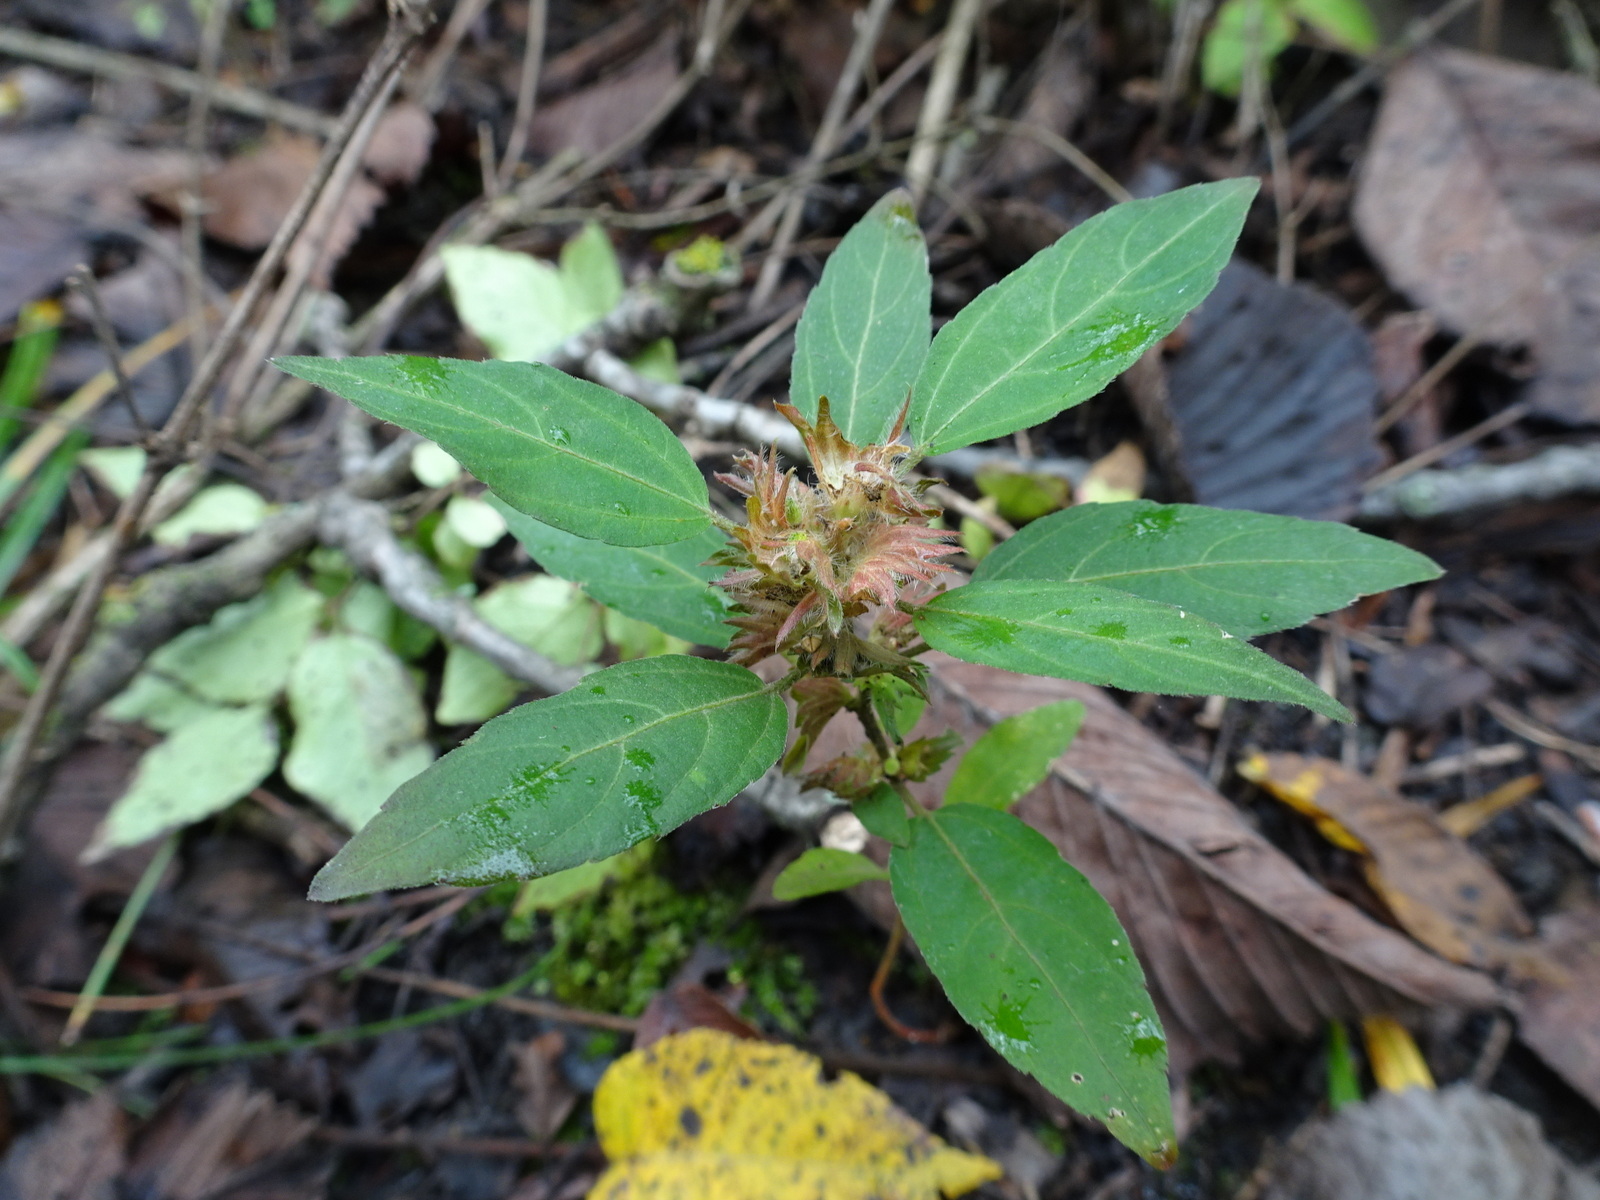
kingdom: Plantae
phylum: Tracheophyta
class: Magnoliopsida
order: Malpighiales
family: Euphorbiaceae
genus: Acalypha
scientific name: Acalypha virginica
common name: Virginia copperleaf
